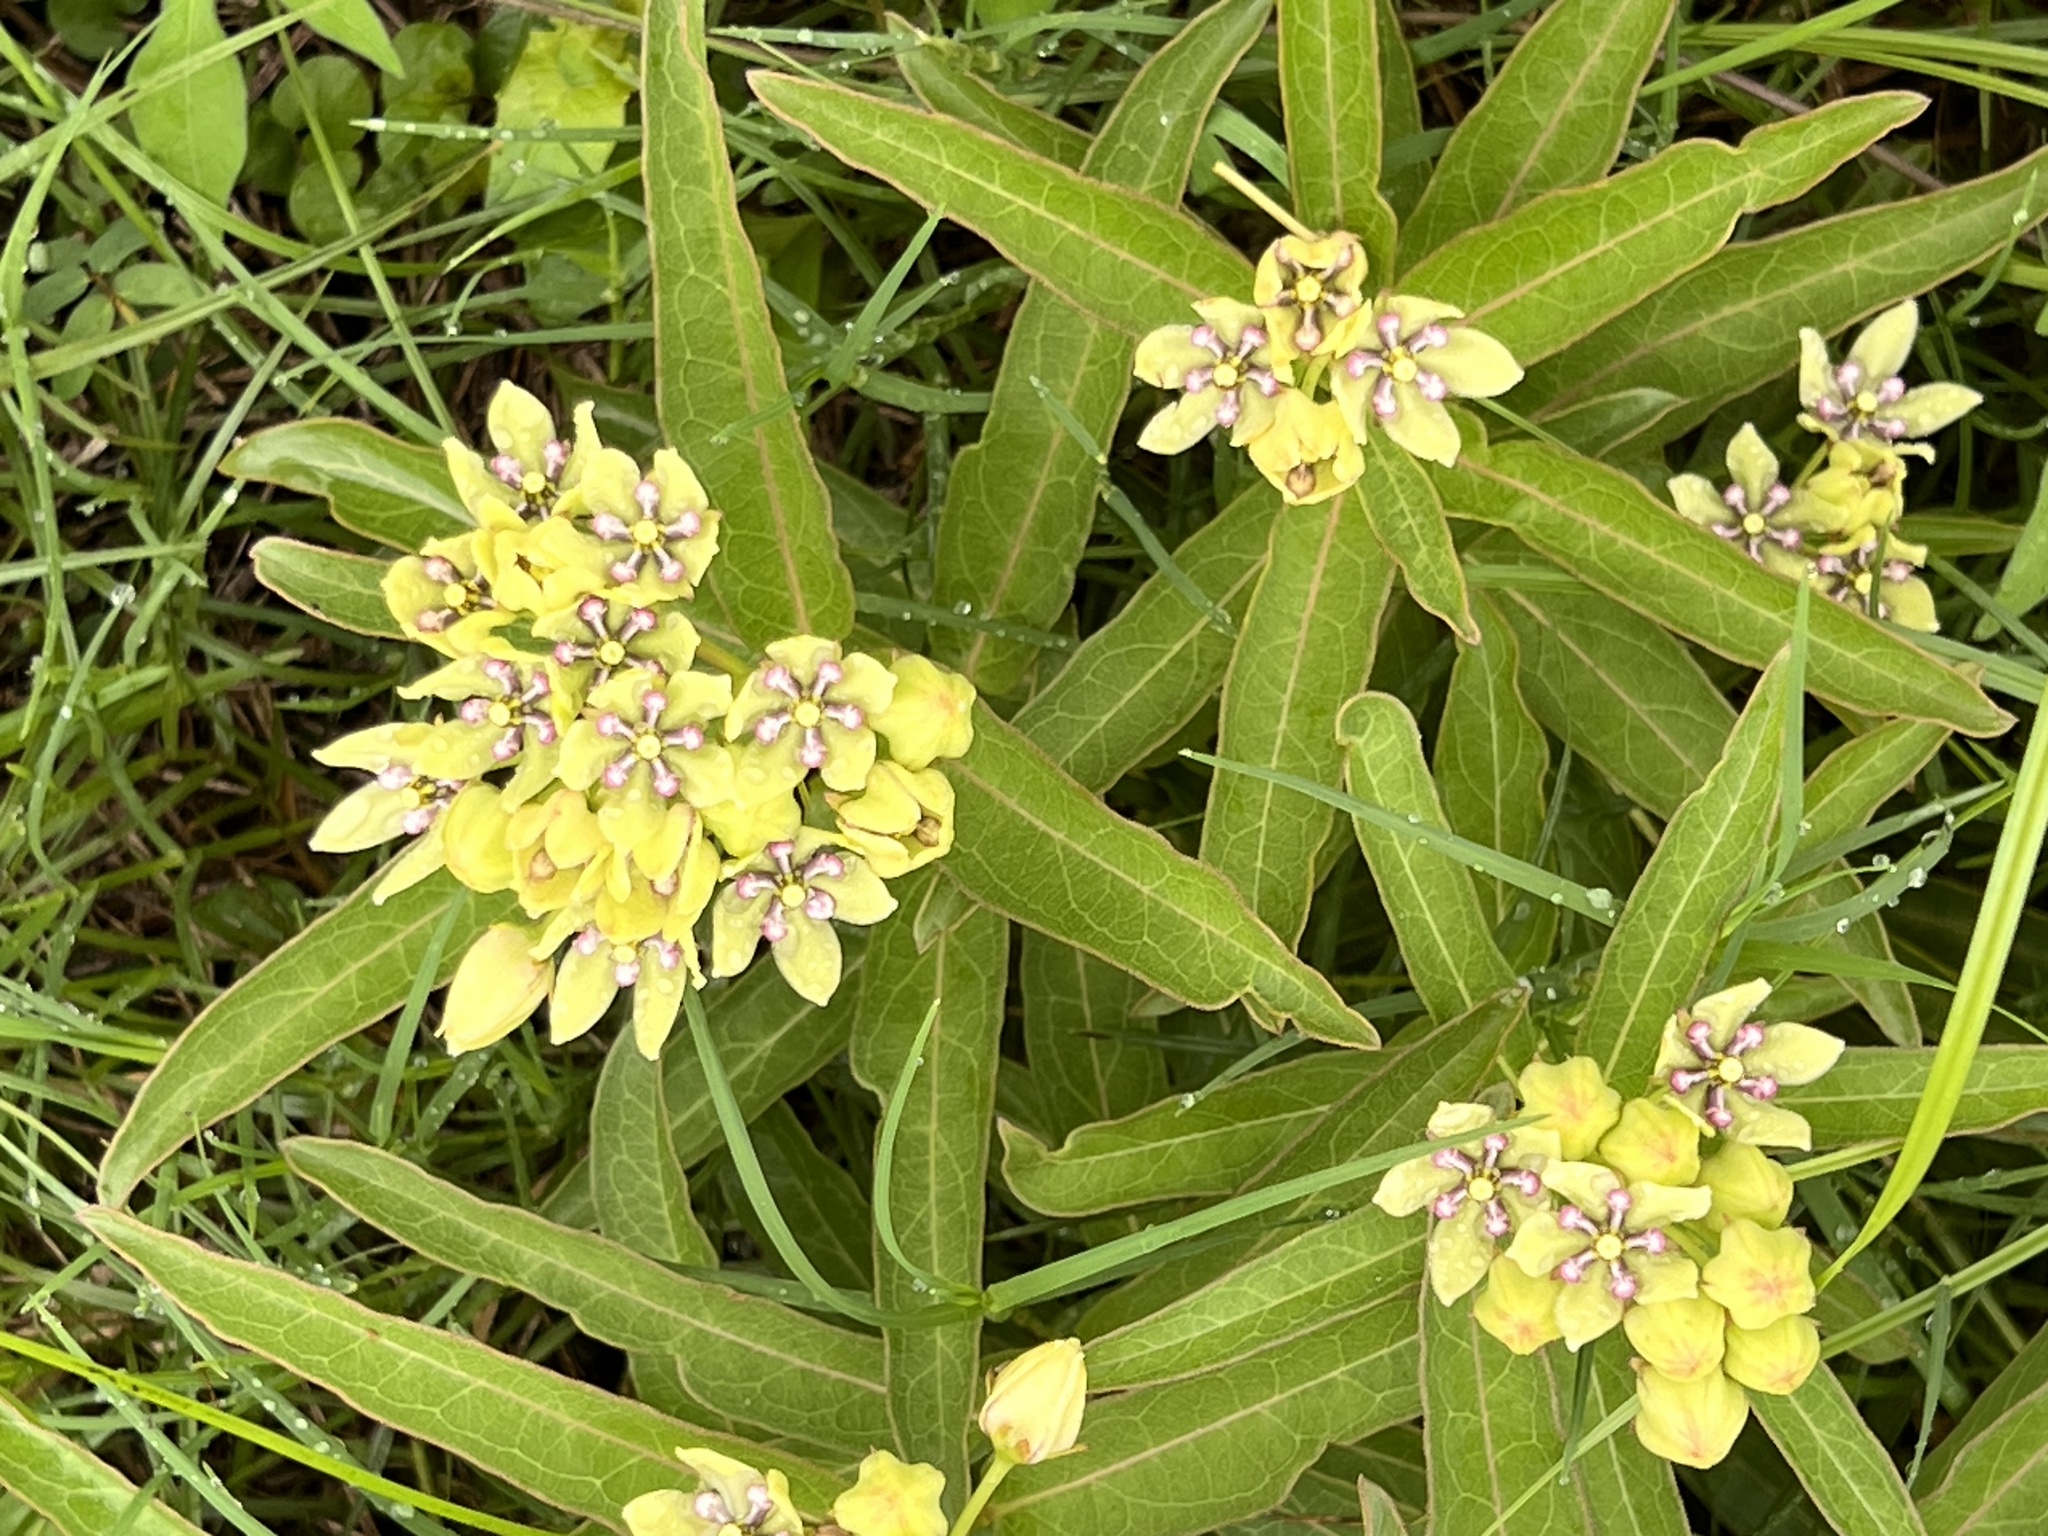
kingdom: Plantae
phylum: Tracheophyta
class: Magnoliopsida
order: Gentianales
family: Apocynaceae
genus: Asclepias
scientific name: Asclepias viridis
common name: Antelope-horns
